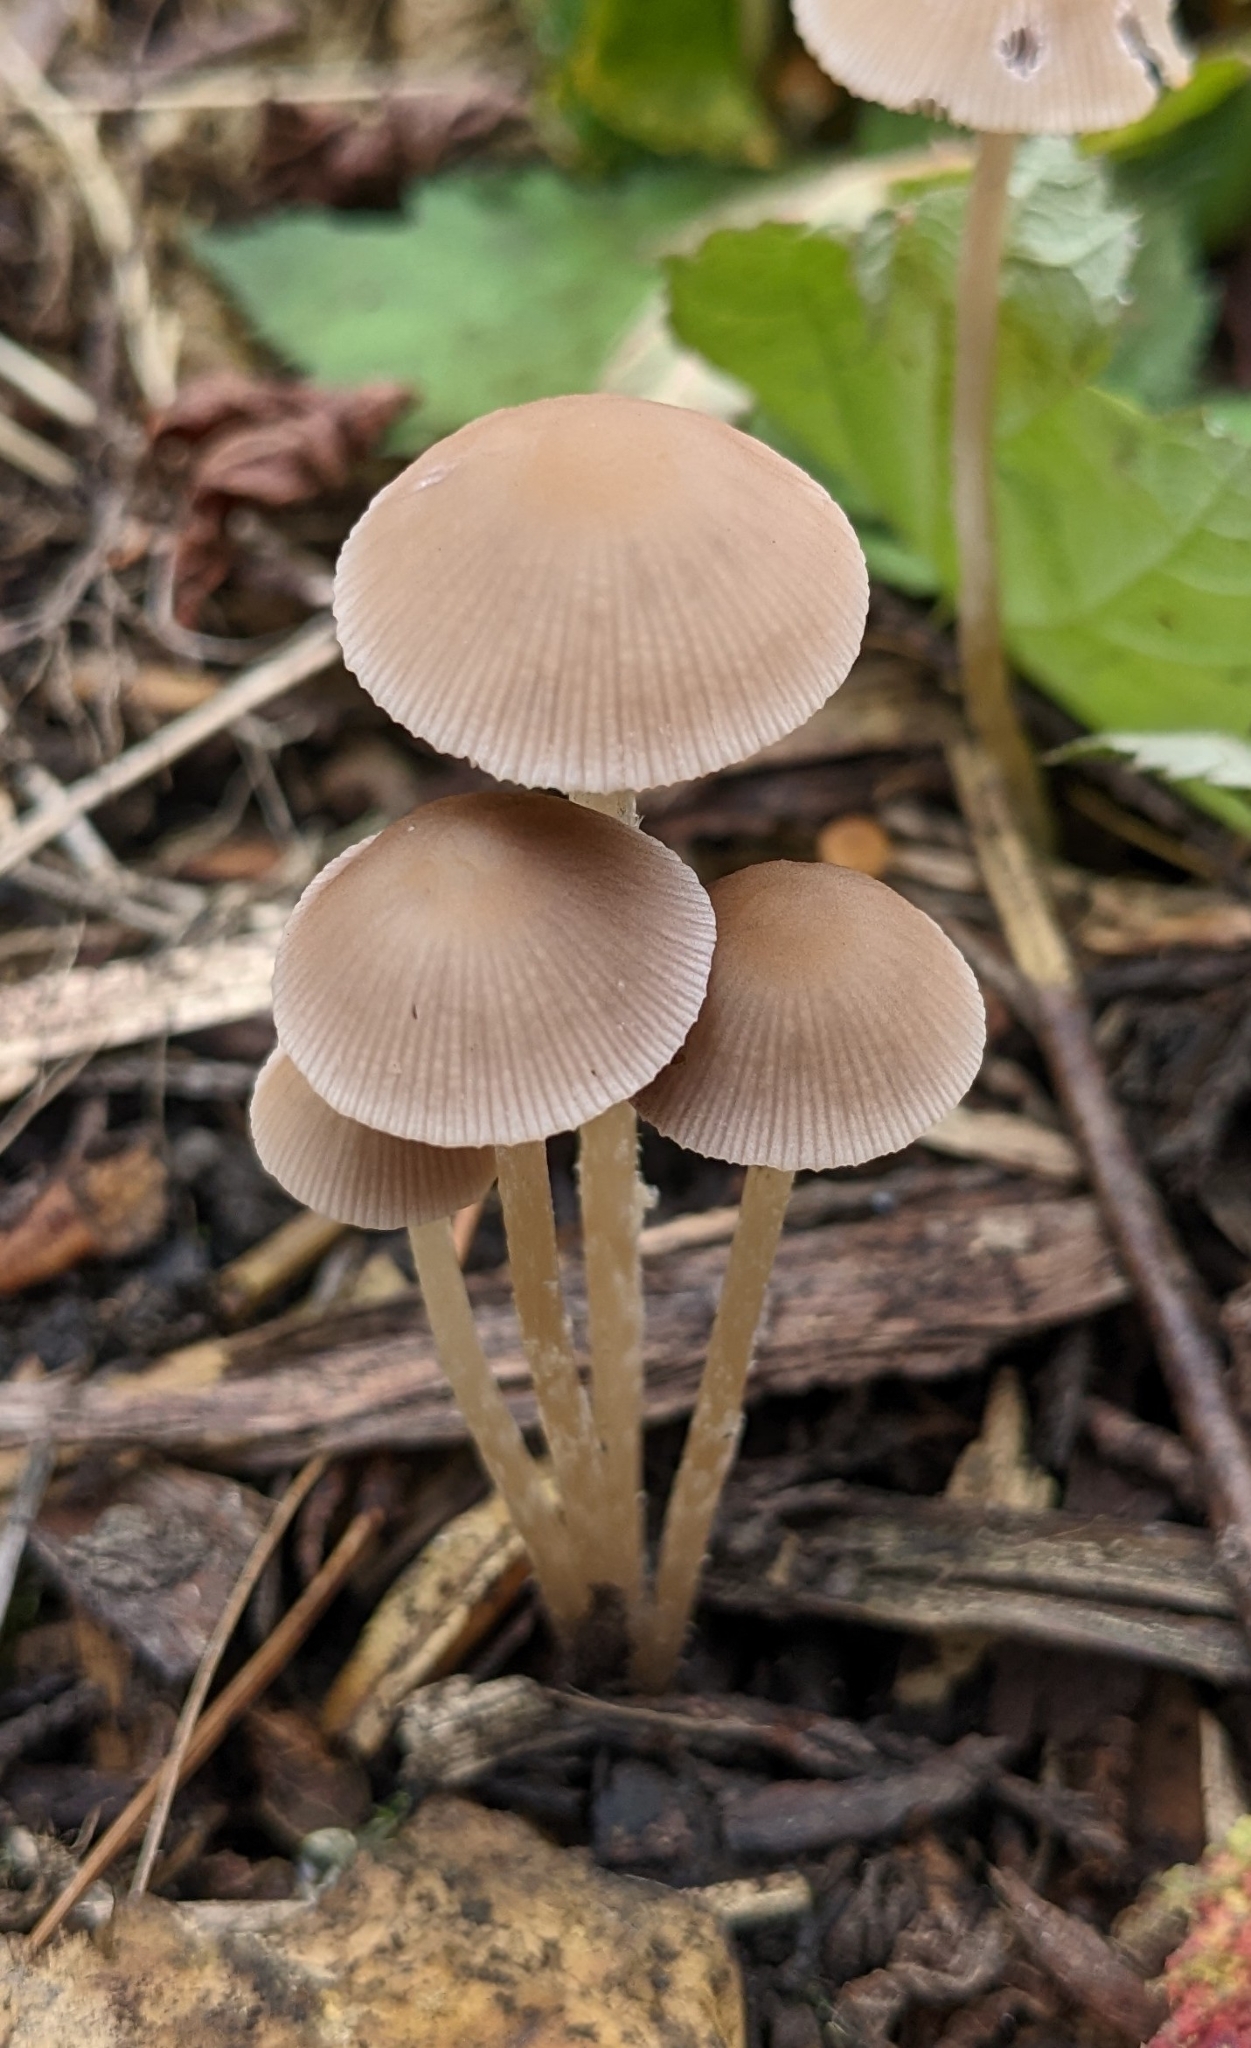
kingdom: Fungi
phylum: Basidiomycota
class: Agaricomycetes
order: Agaricales
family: Mycenaceae
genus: Mycena
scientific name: Mycena galericulata
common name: Bonnet mycena
